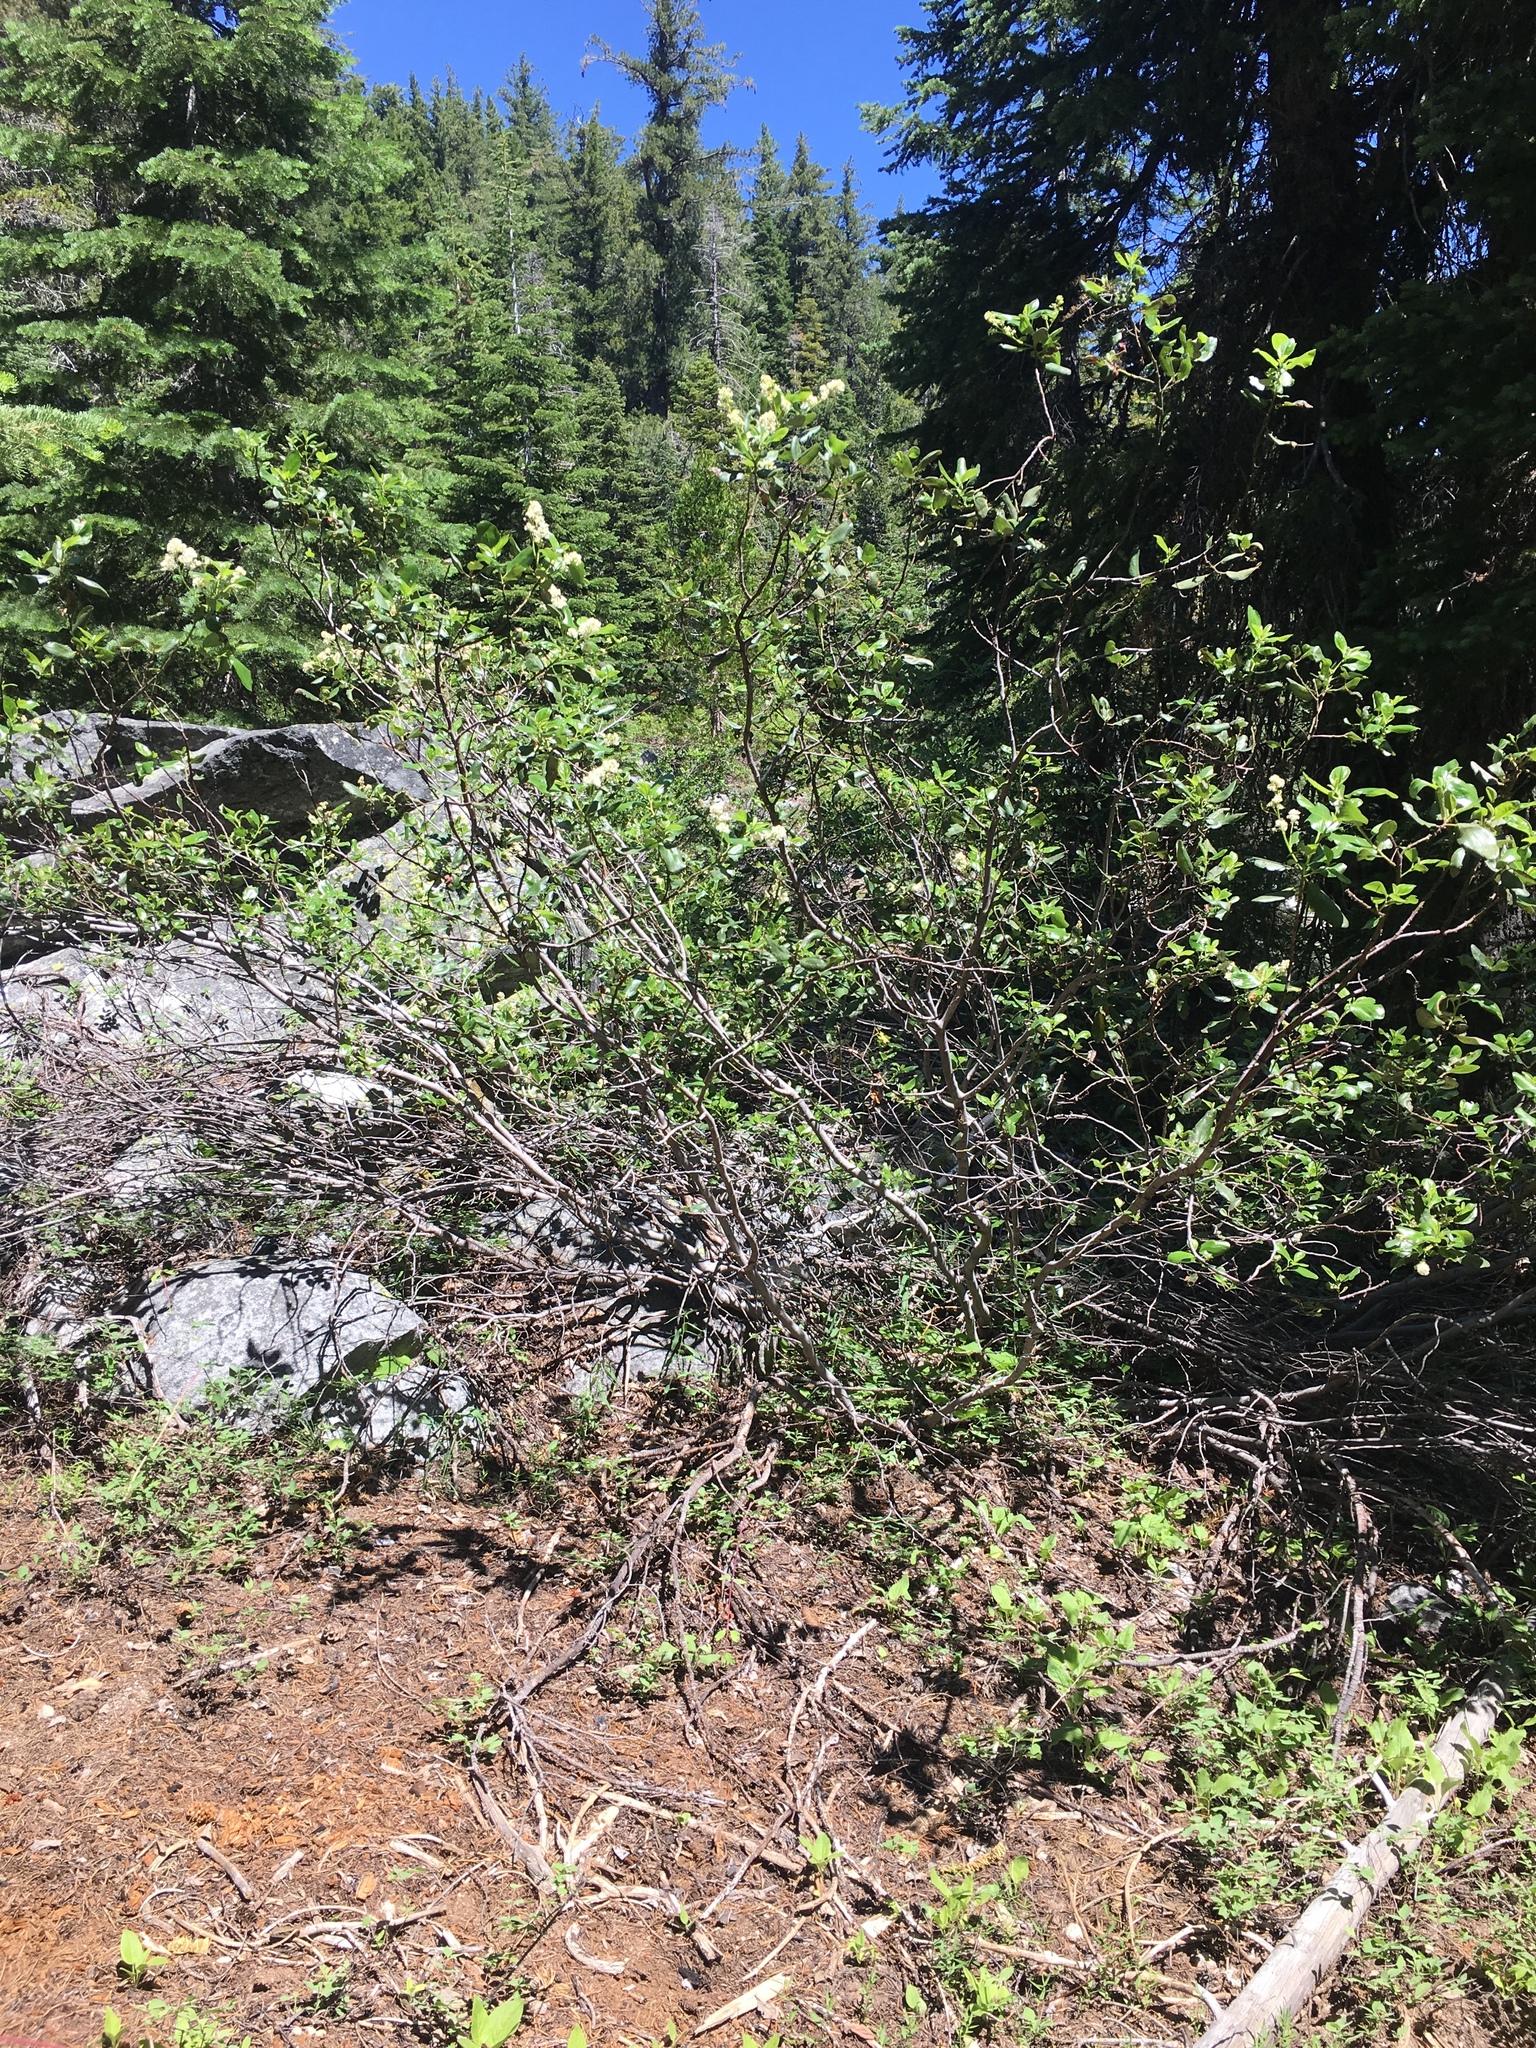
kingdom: Plantae
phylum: Tracheophyta
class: Magnoliopsida
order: Rosales
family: Rhamnaceae
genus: Ceanothus
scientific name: Ceanothus velutinus
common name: Snowbrush
